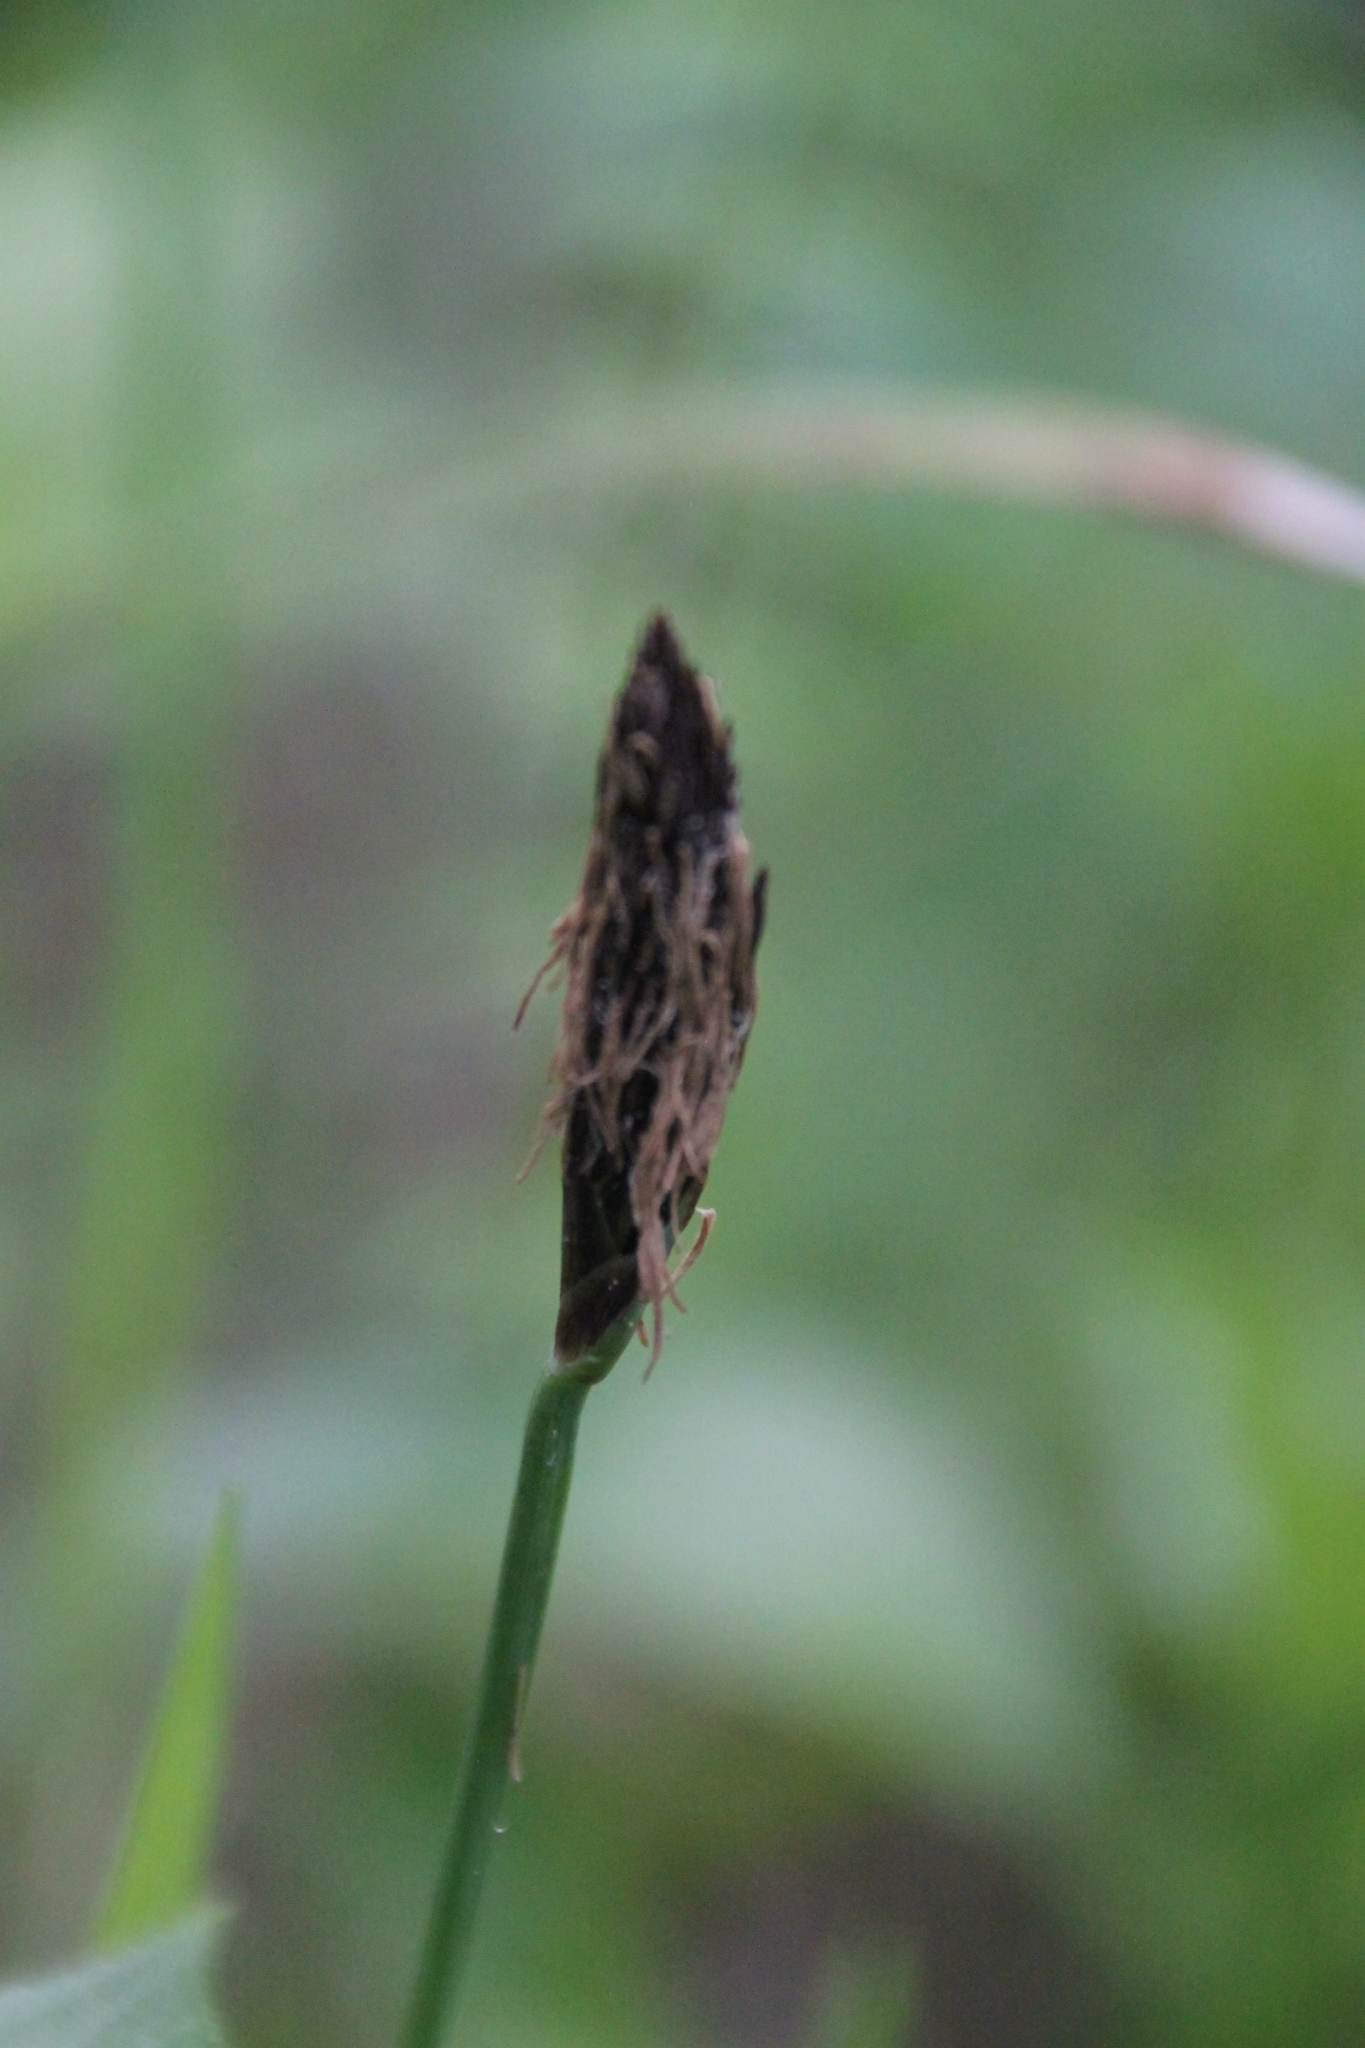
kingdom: Plantae
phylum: Tracheophyta
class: Liliopsida
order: Poales
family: Cyperaceae
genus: Carex
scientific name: Carex pilosa
